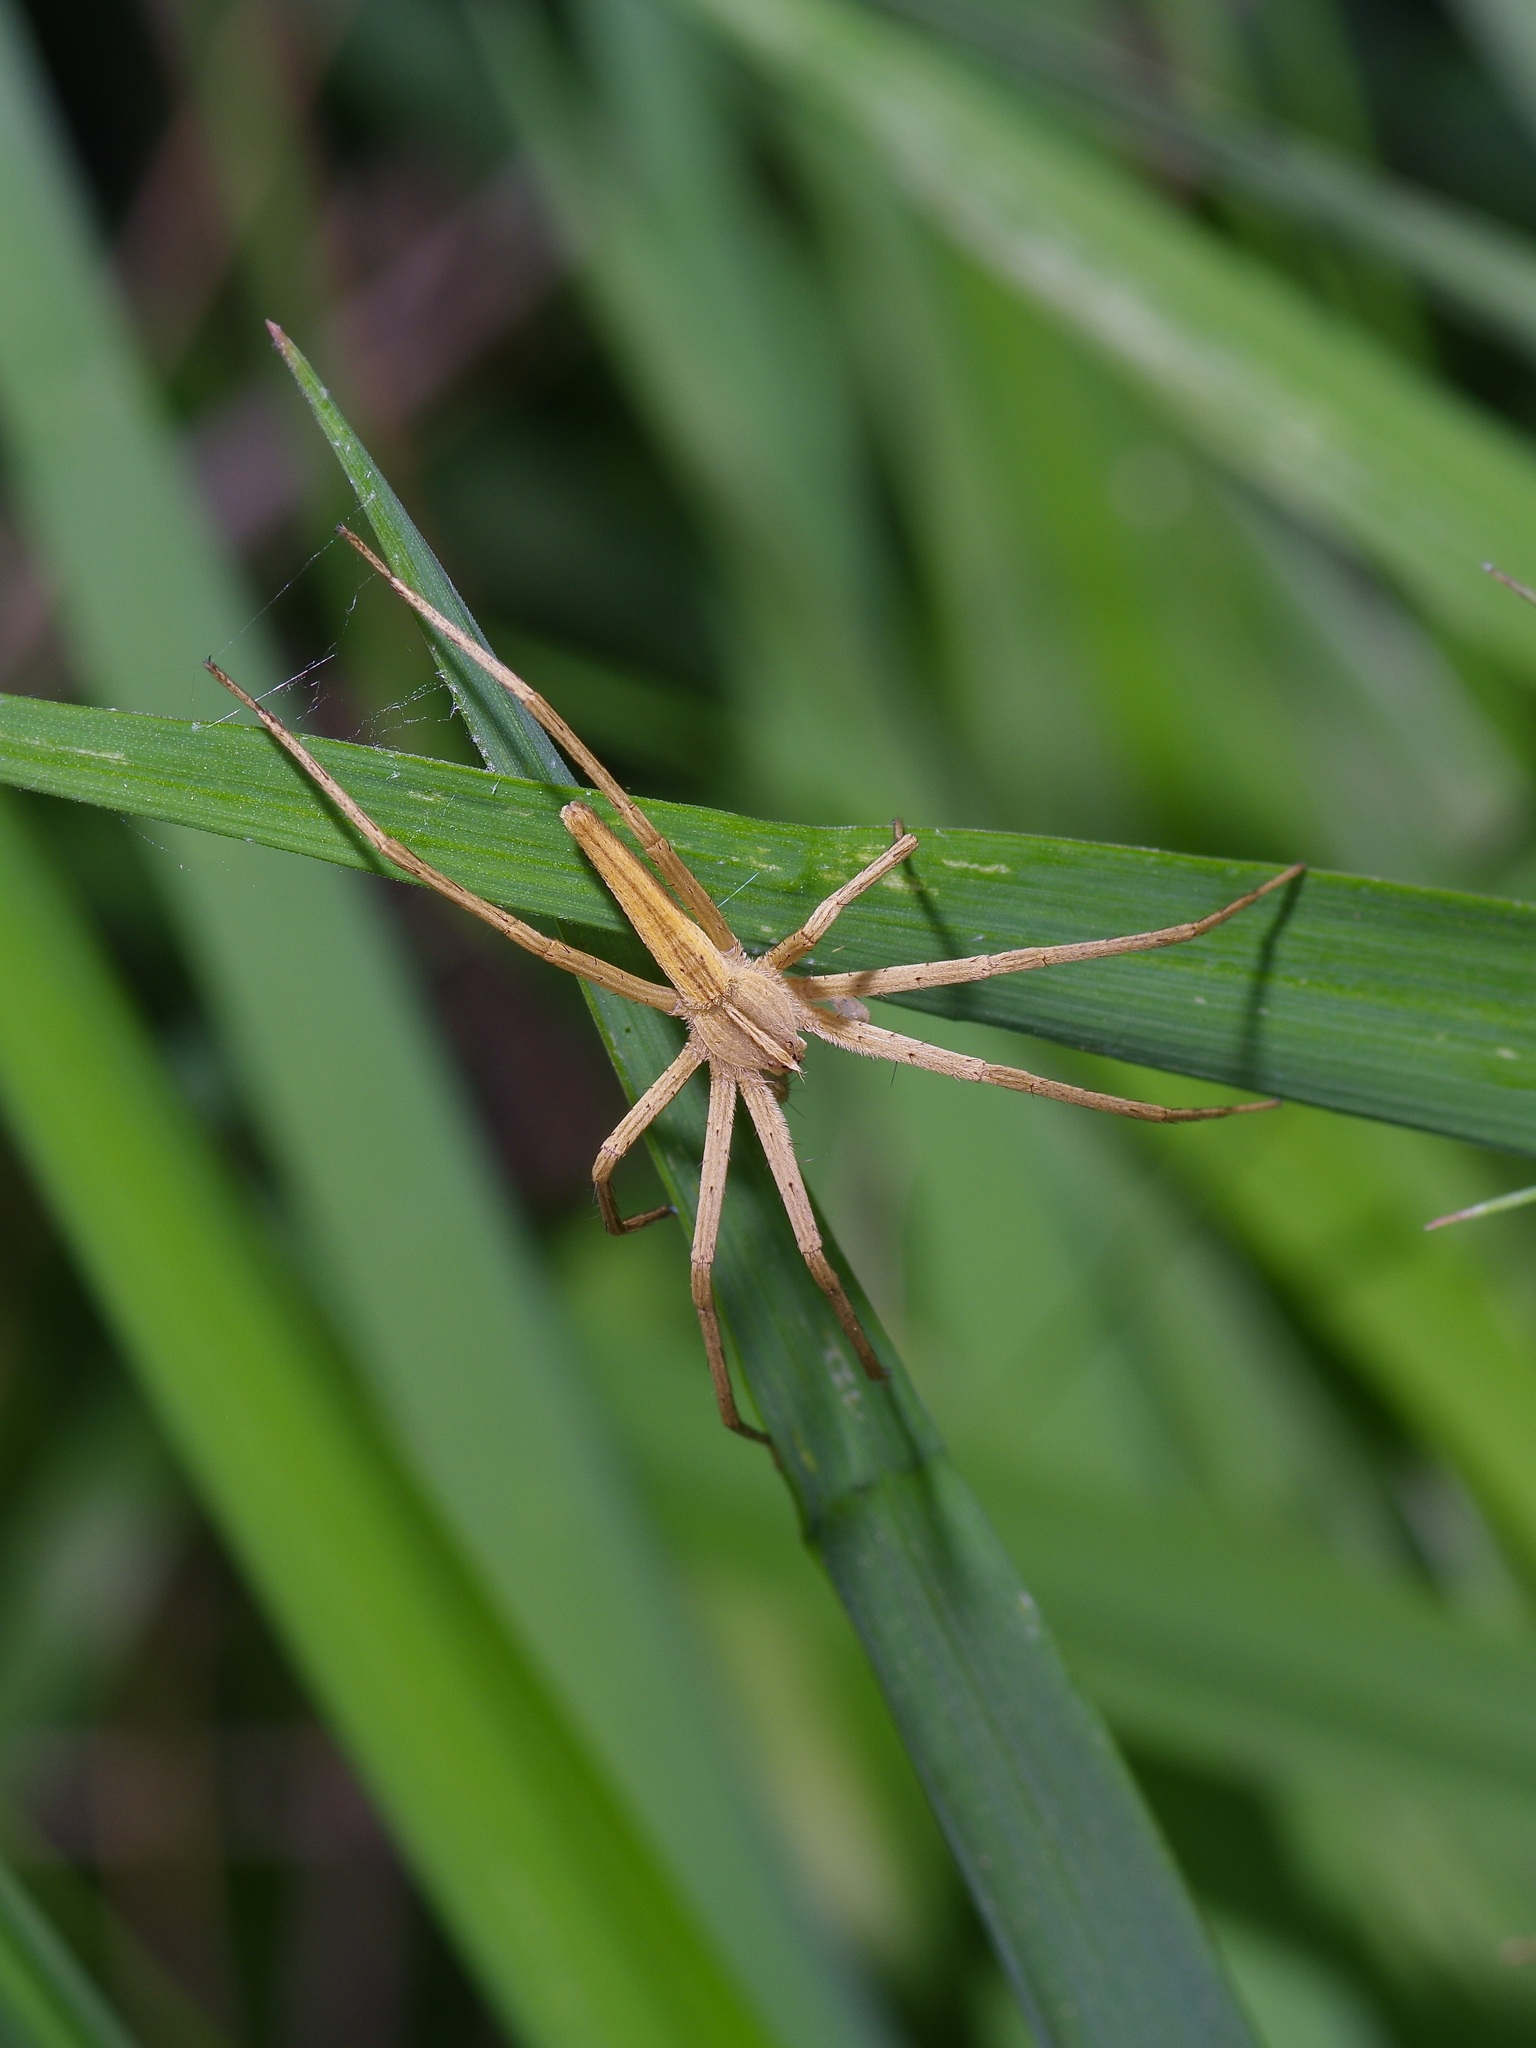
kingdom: Animalia
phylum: Arthropoda
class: Arachnida
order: Araneae
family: Pisauridae
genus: Pisaurina
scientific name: Pisaurina dubia
